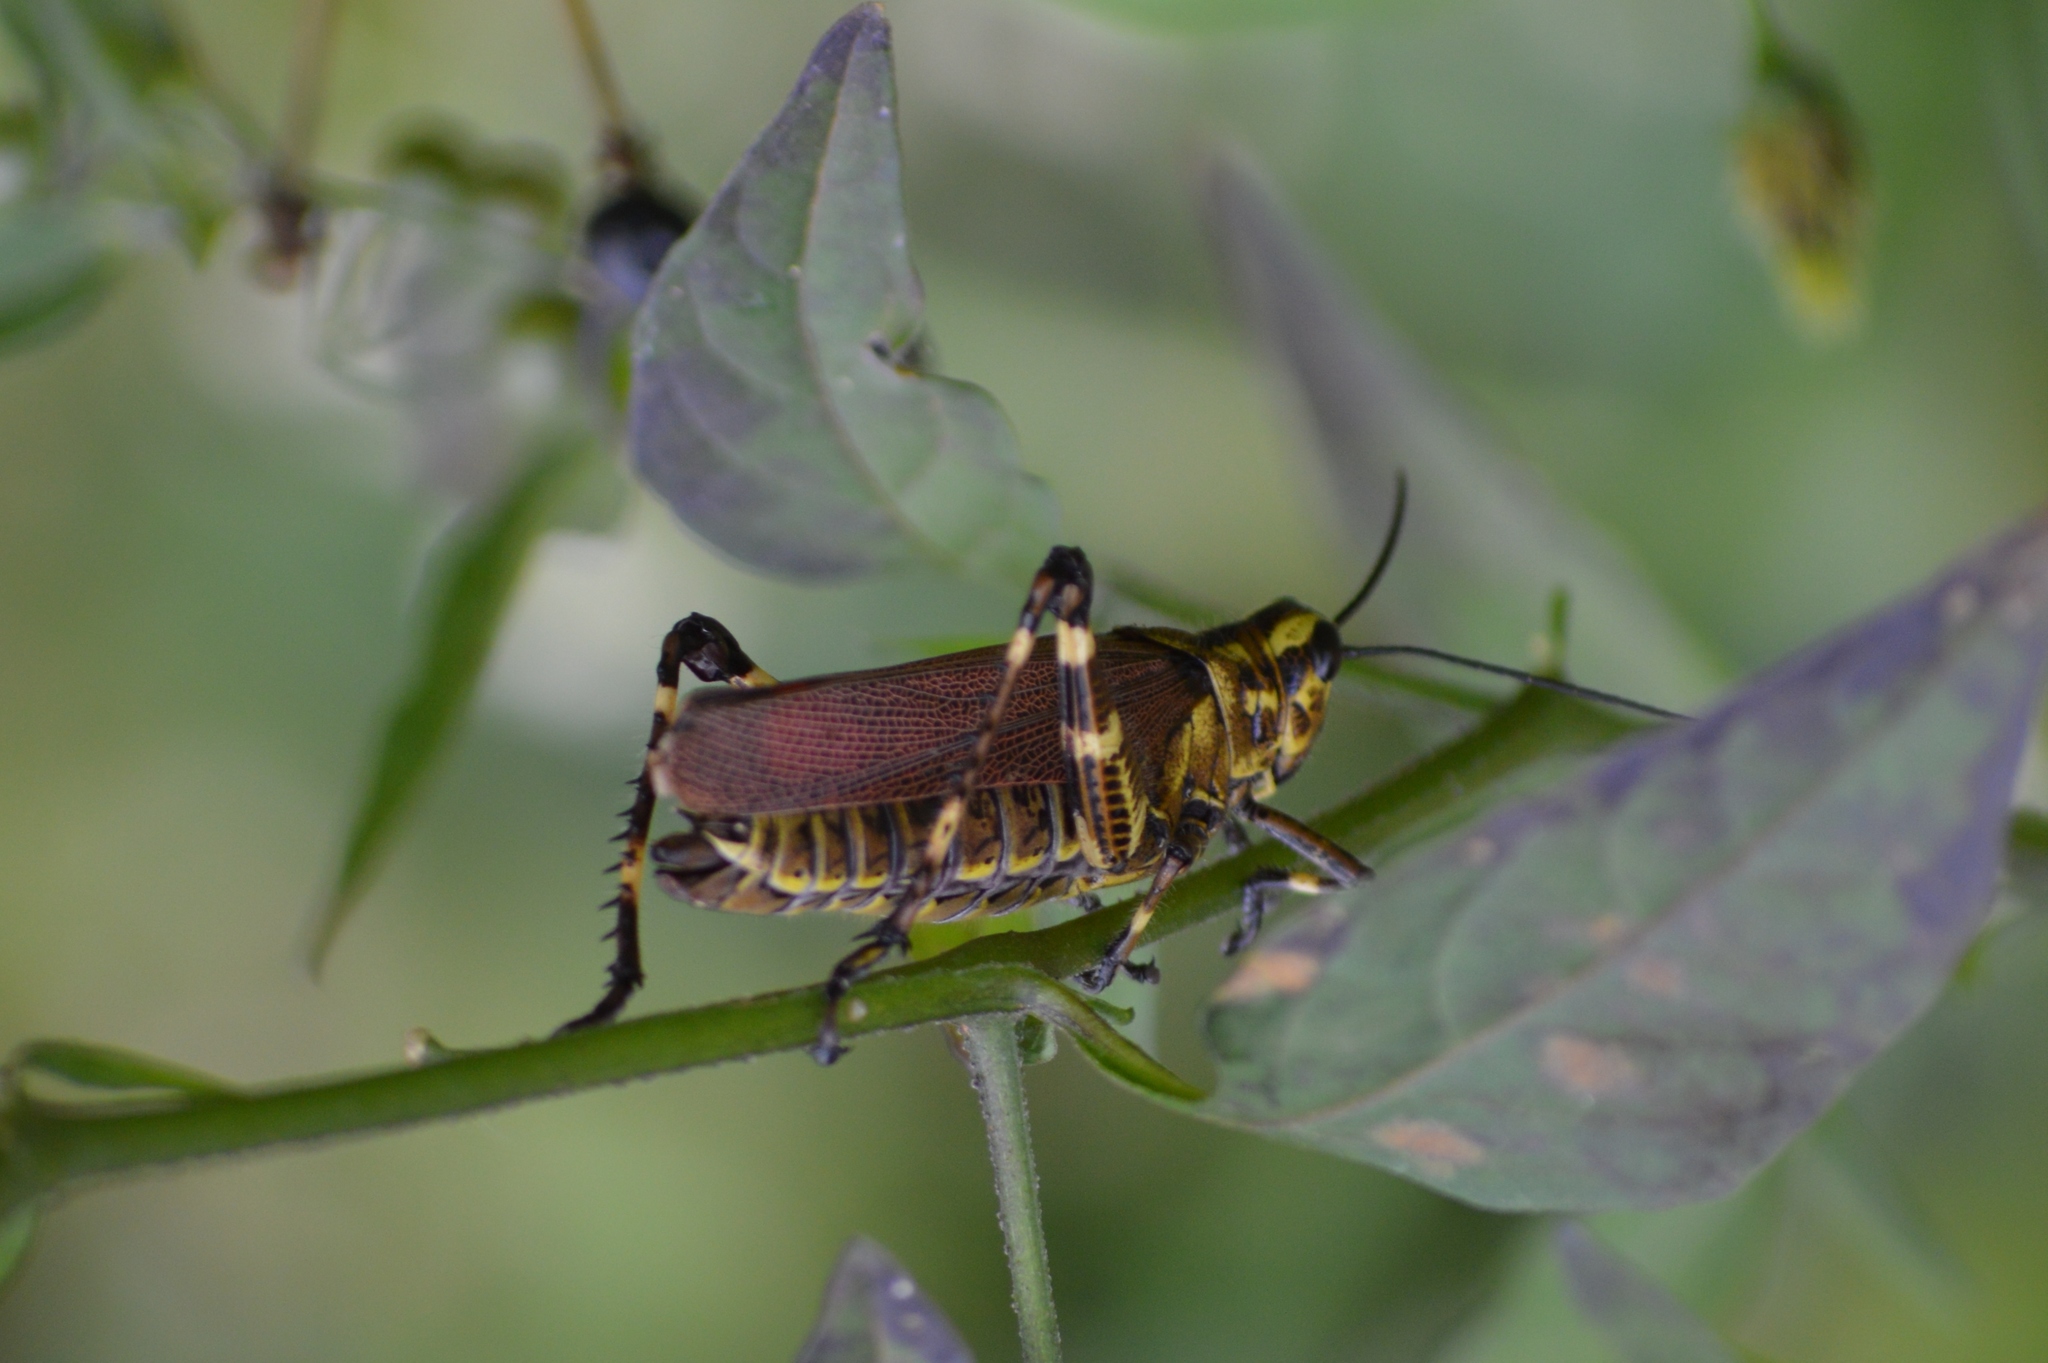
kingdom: Animalia
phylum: Arthropoda
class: Insecta
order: Orthoptera
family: Romaleidae
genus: Chromacris
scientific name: Chromacris speciosa
